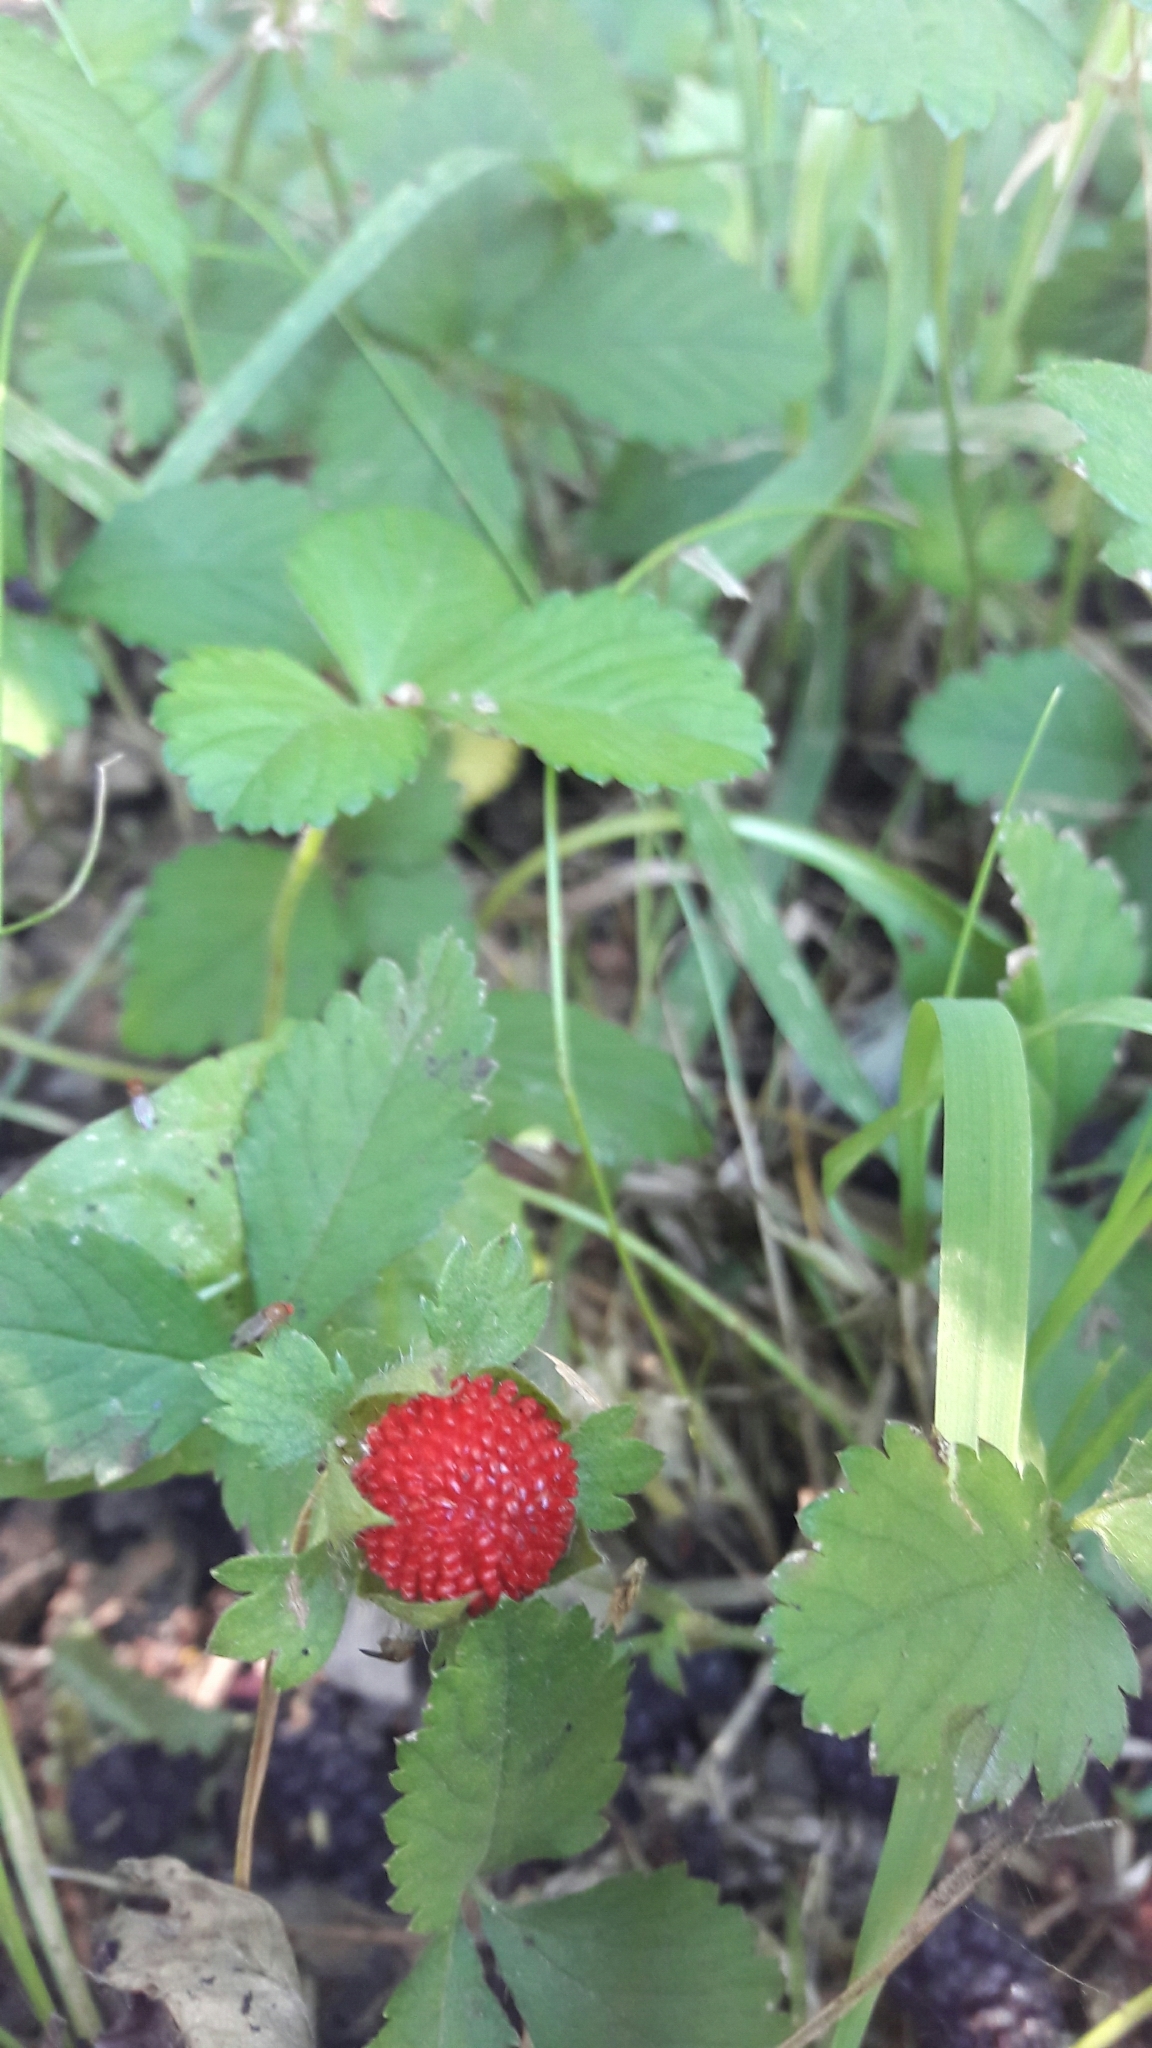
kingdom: Plantae
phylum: Tracheophyta
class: Magnoliopsida
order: Rosales
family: Rosaceae
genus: Potentilla
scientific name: Potentilla indica
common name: Yellow-flowered strawberry
